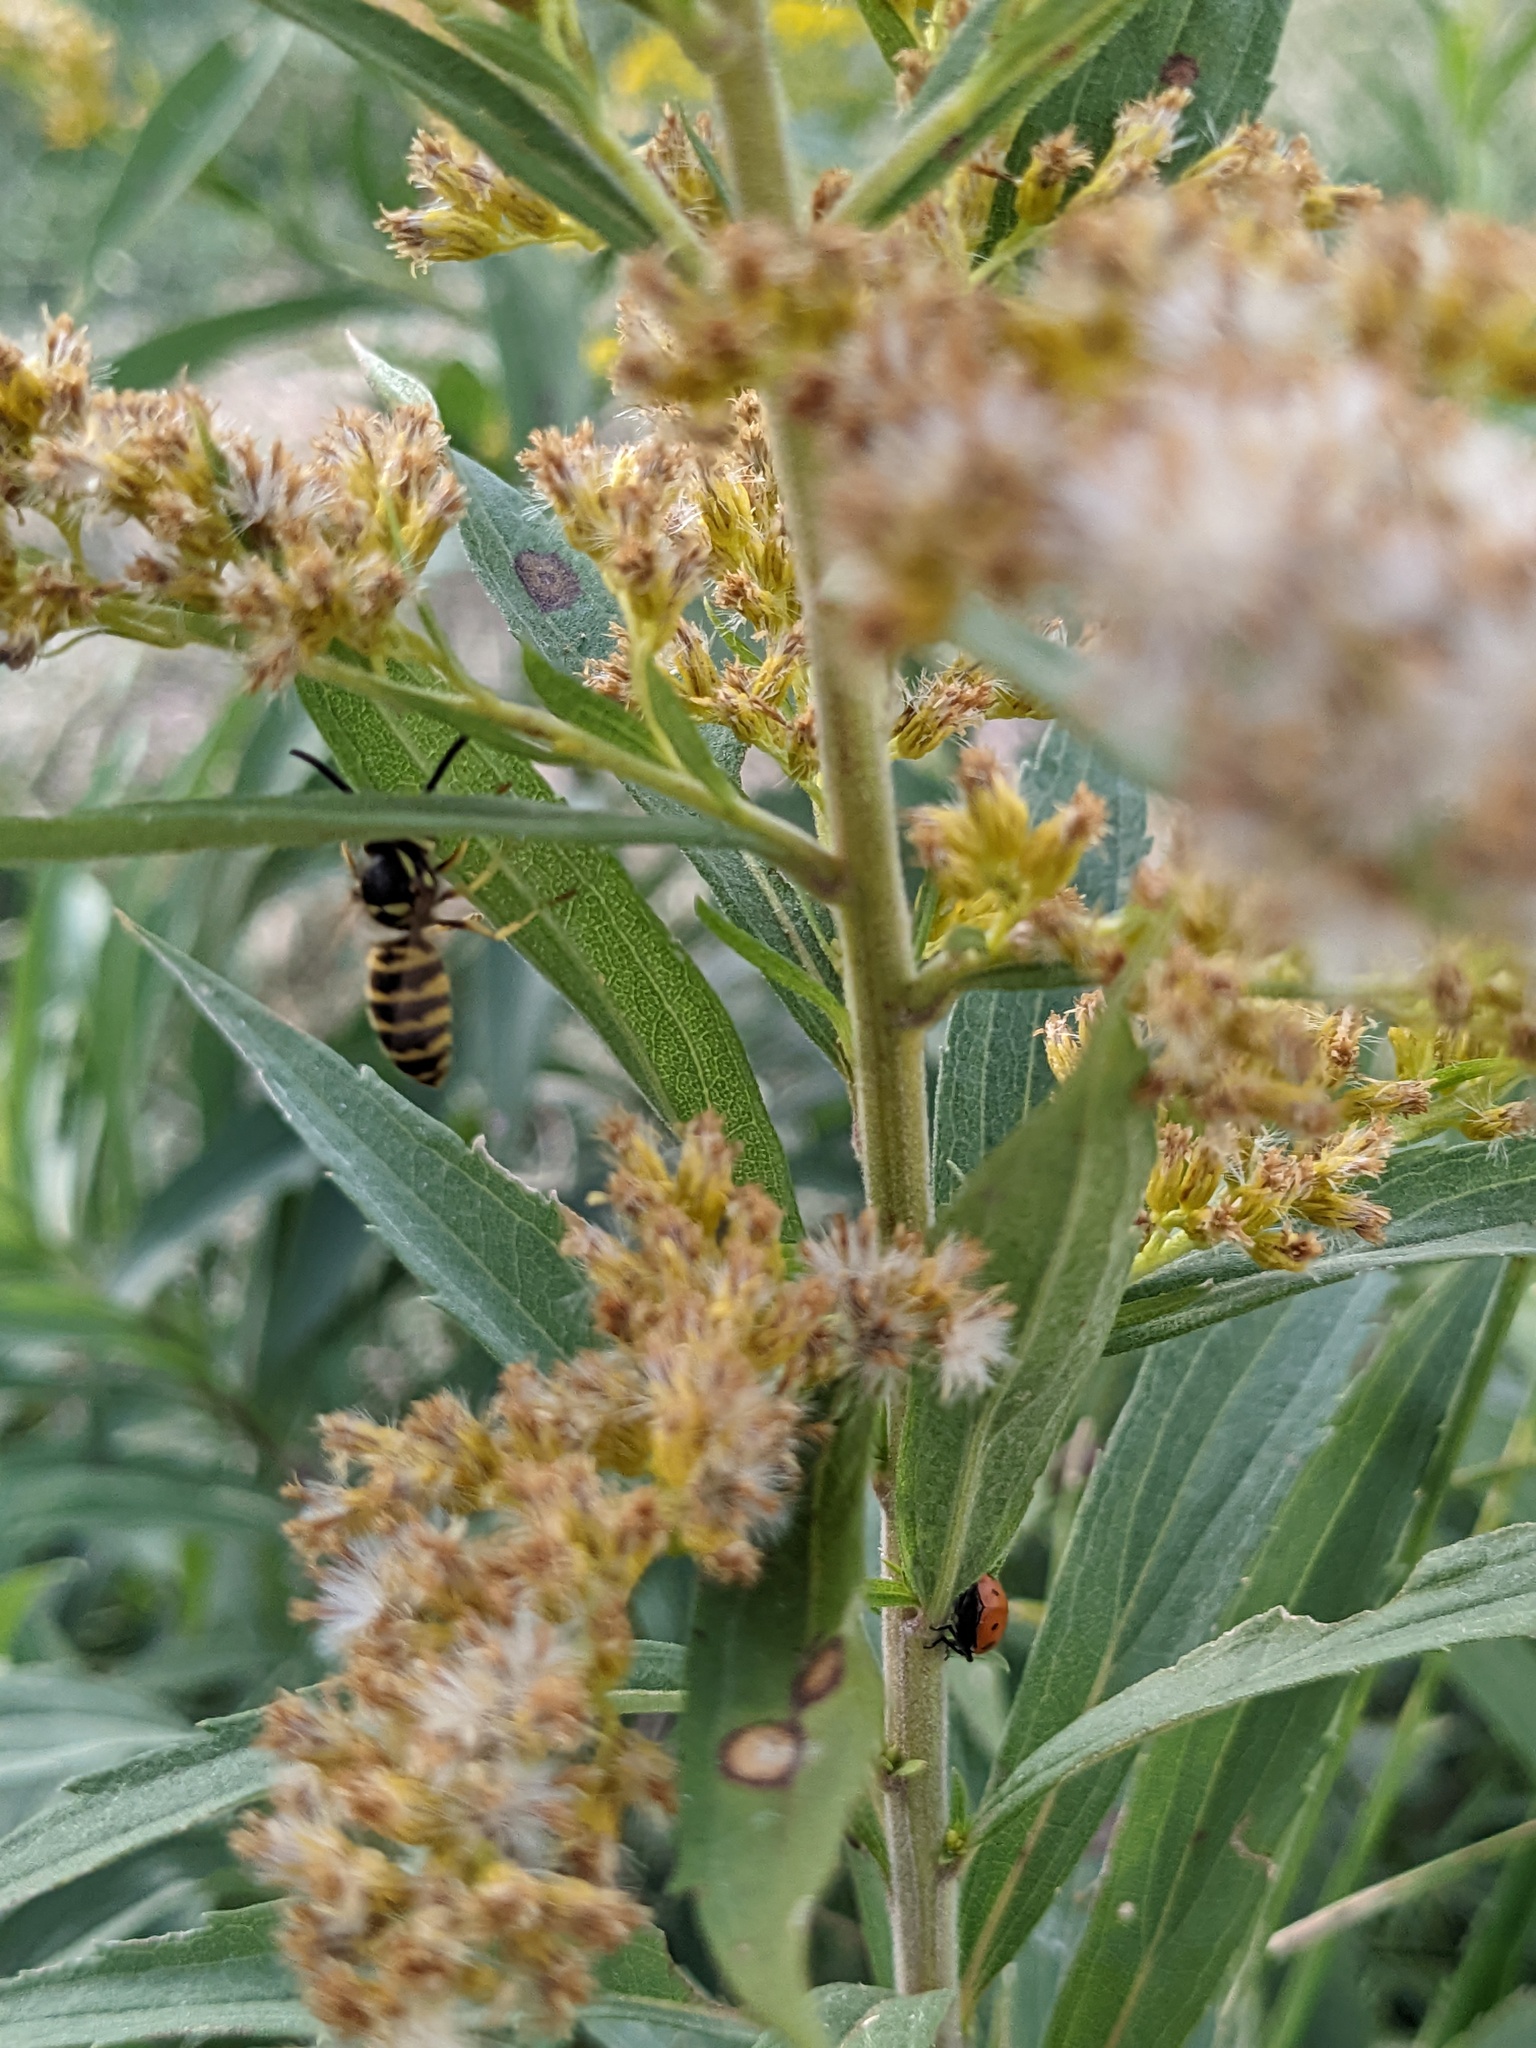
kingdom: Animalia
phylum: Arthropoda
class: Insecta
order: Hymenoptera
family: Vespidae
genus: Vespula
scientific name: Vespula maculifrons
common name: Eastern yellowjacket
